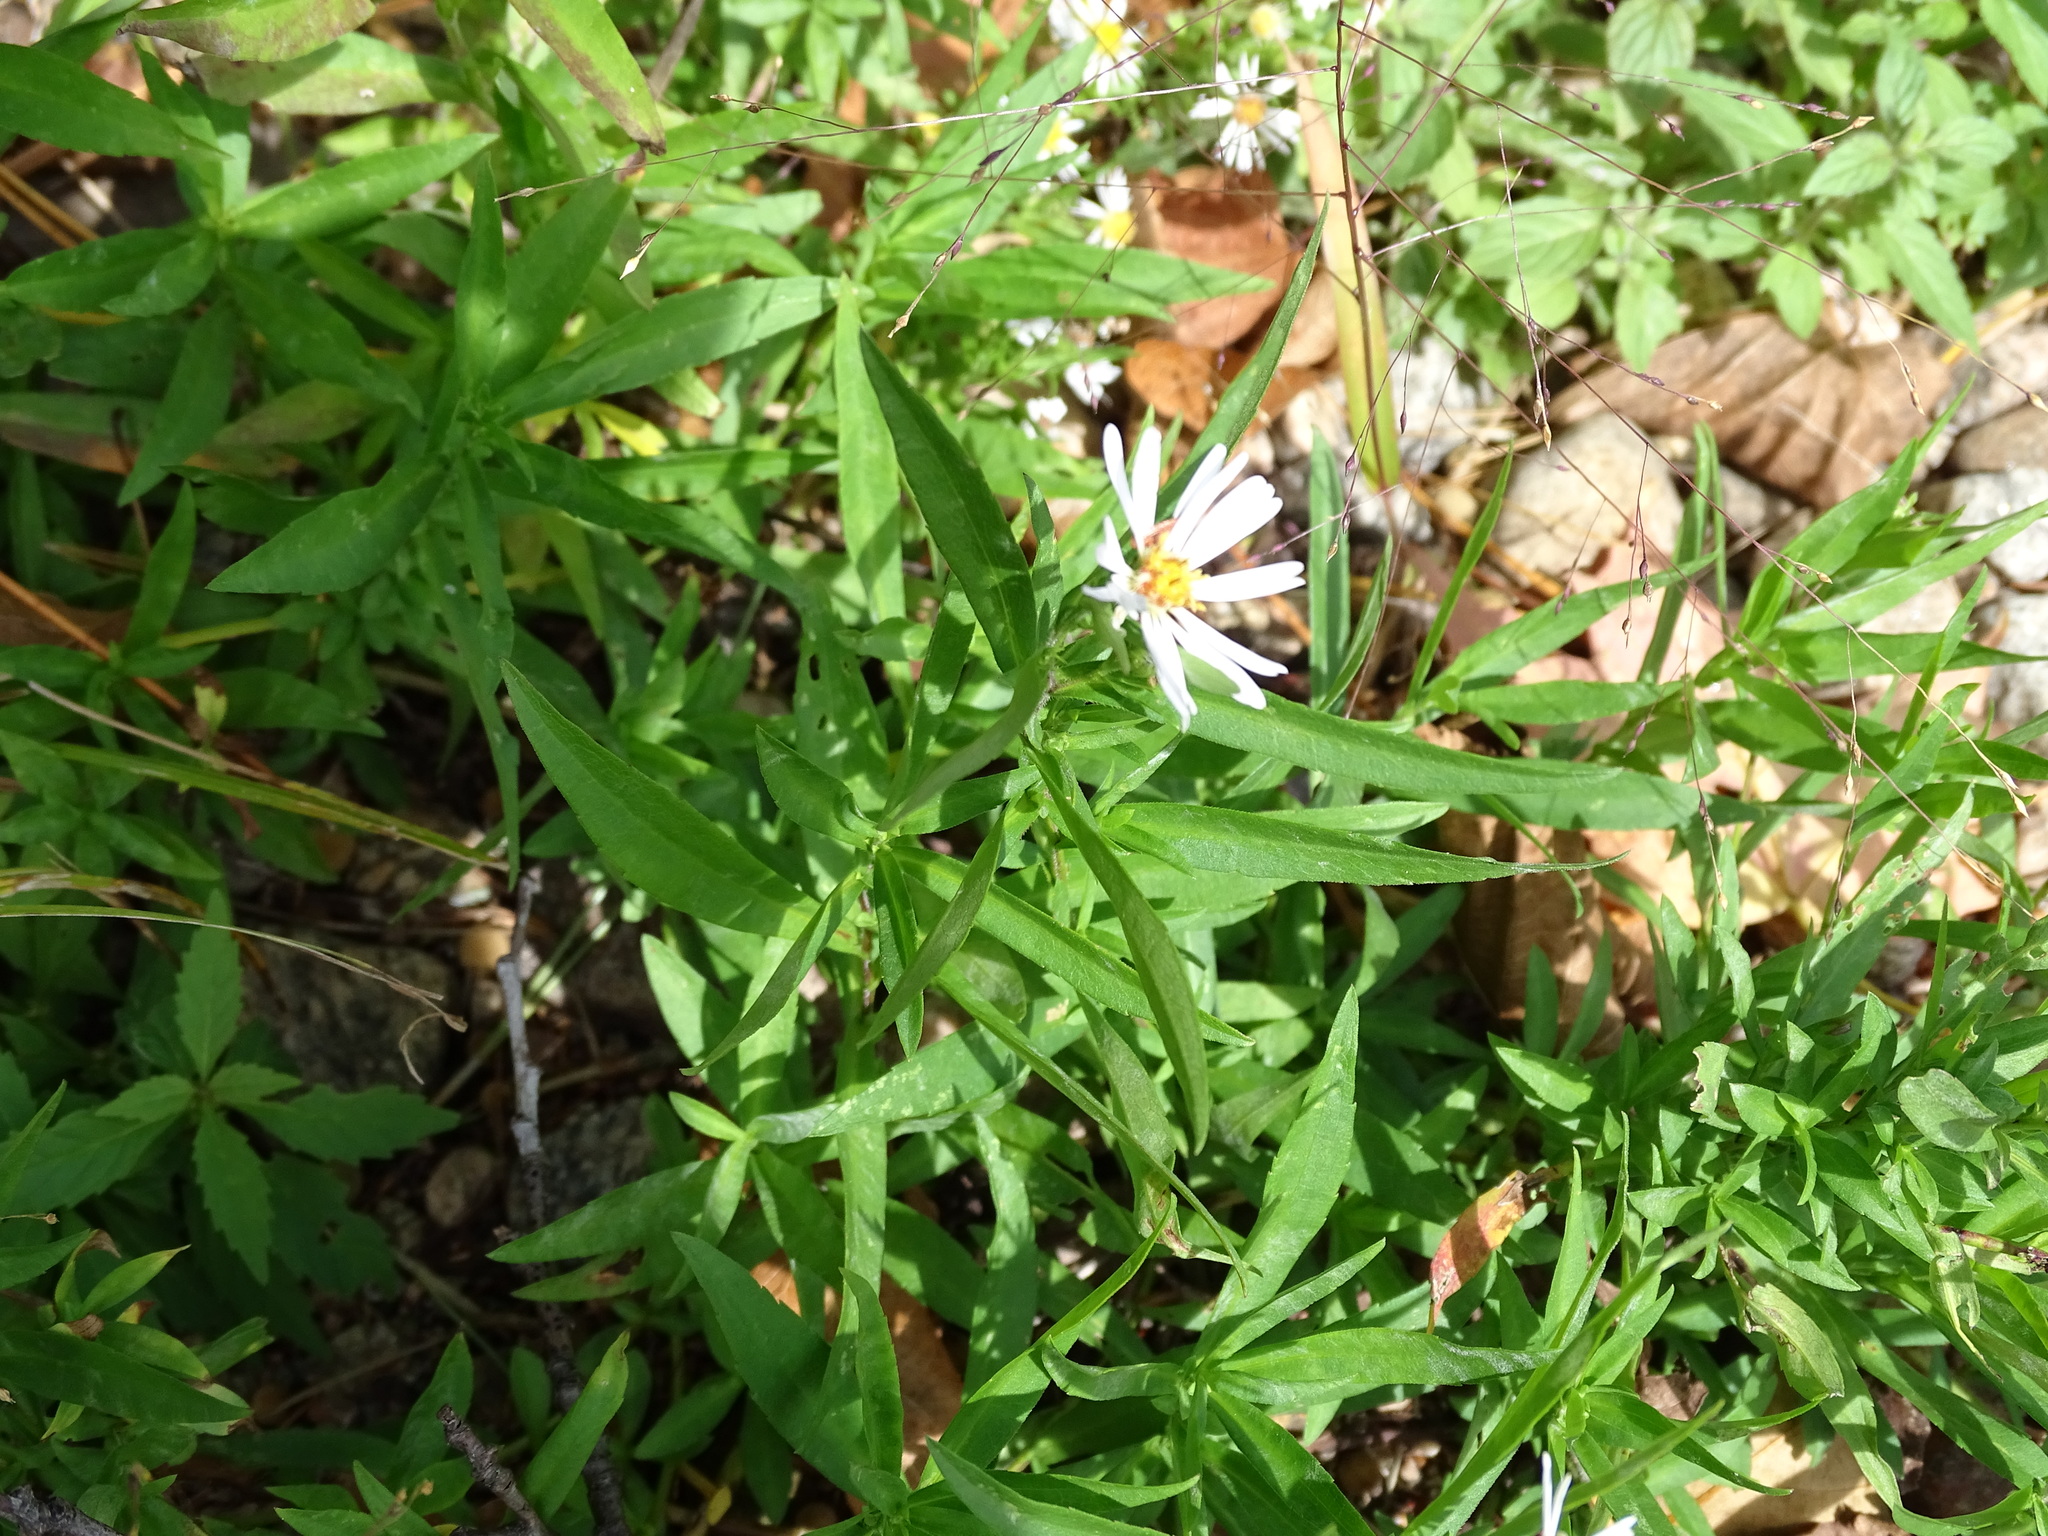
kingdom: Plantae
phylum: Tracheophyta
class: Magnoliopsida
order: Asterales
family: Asteraceae
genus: Symphyotrichum
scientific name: Symphyotrichum lanceolatum
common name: Panicled aster
